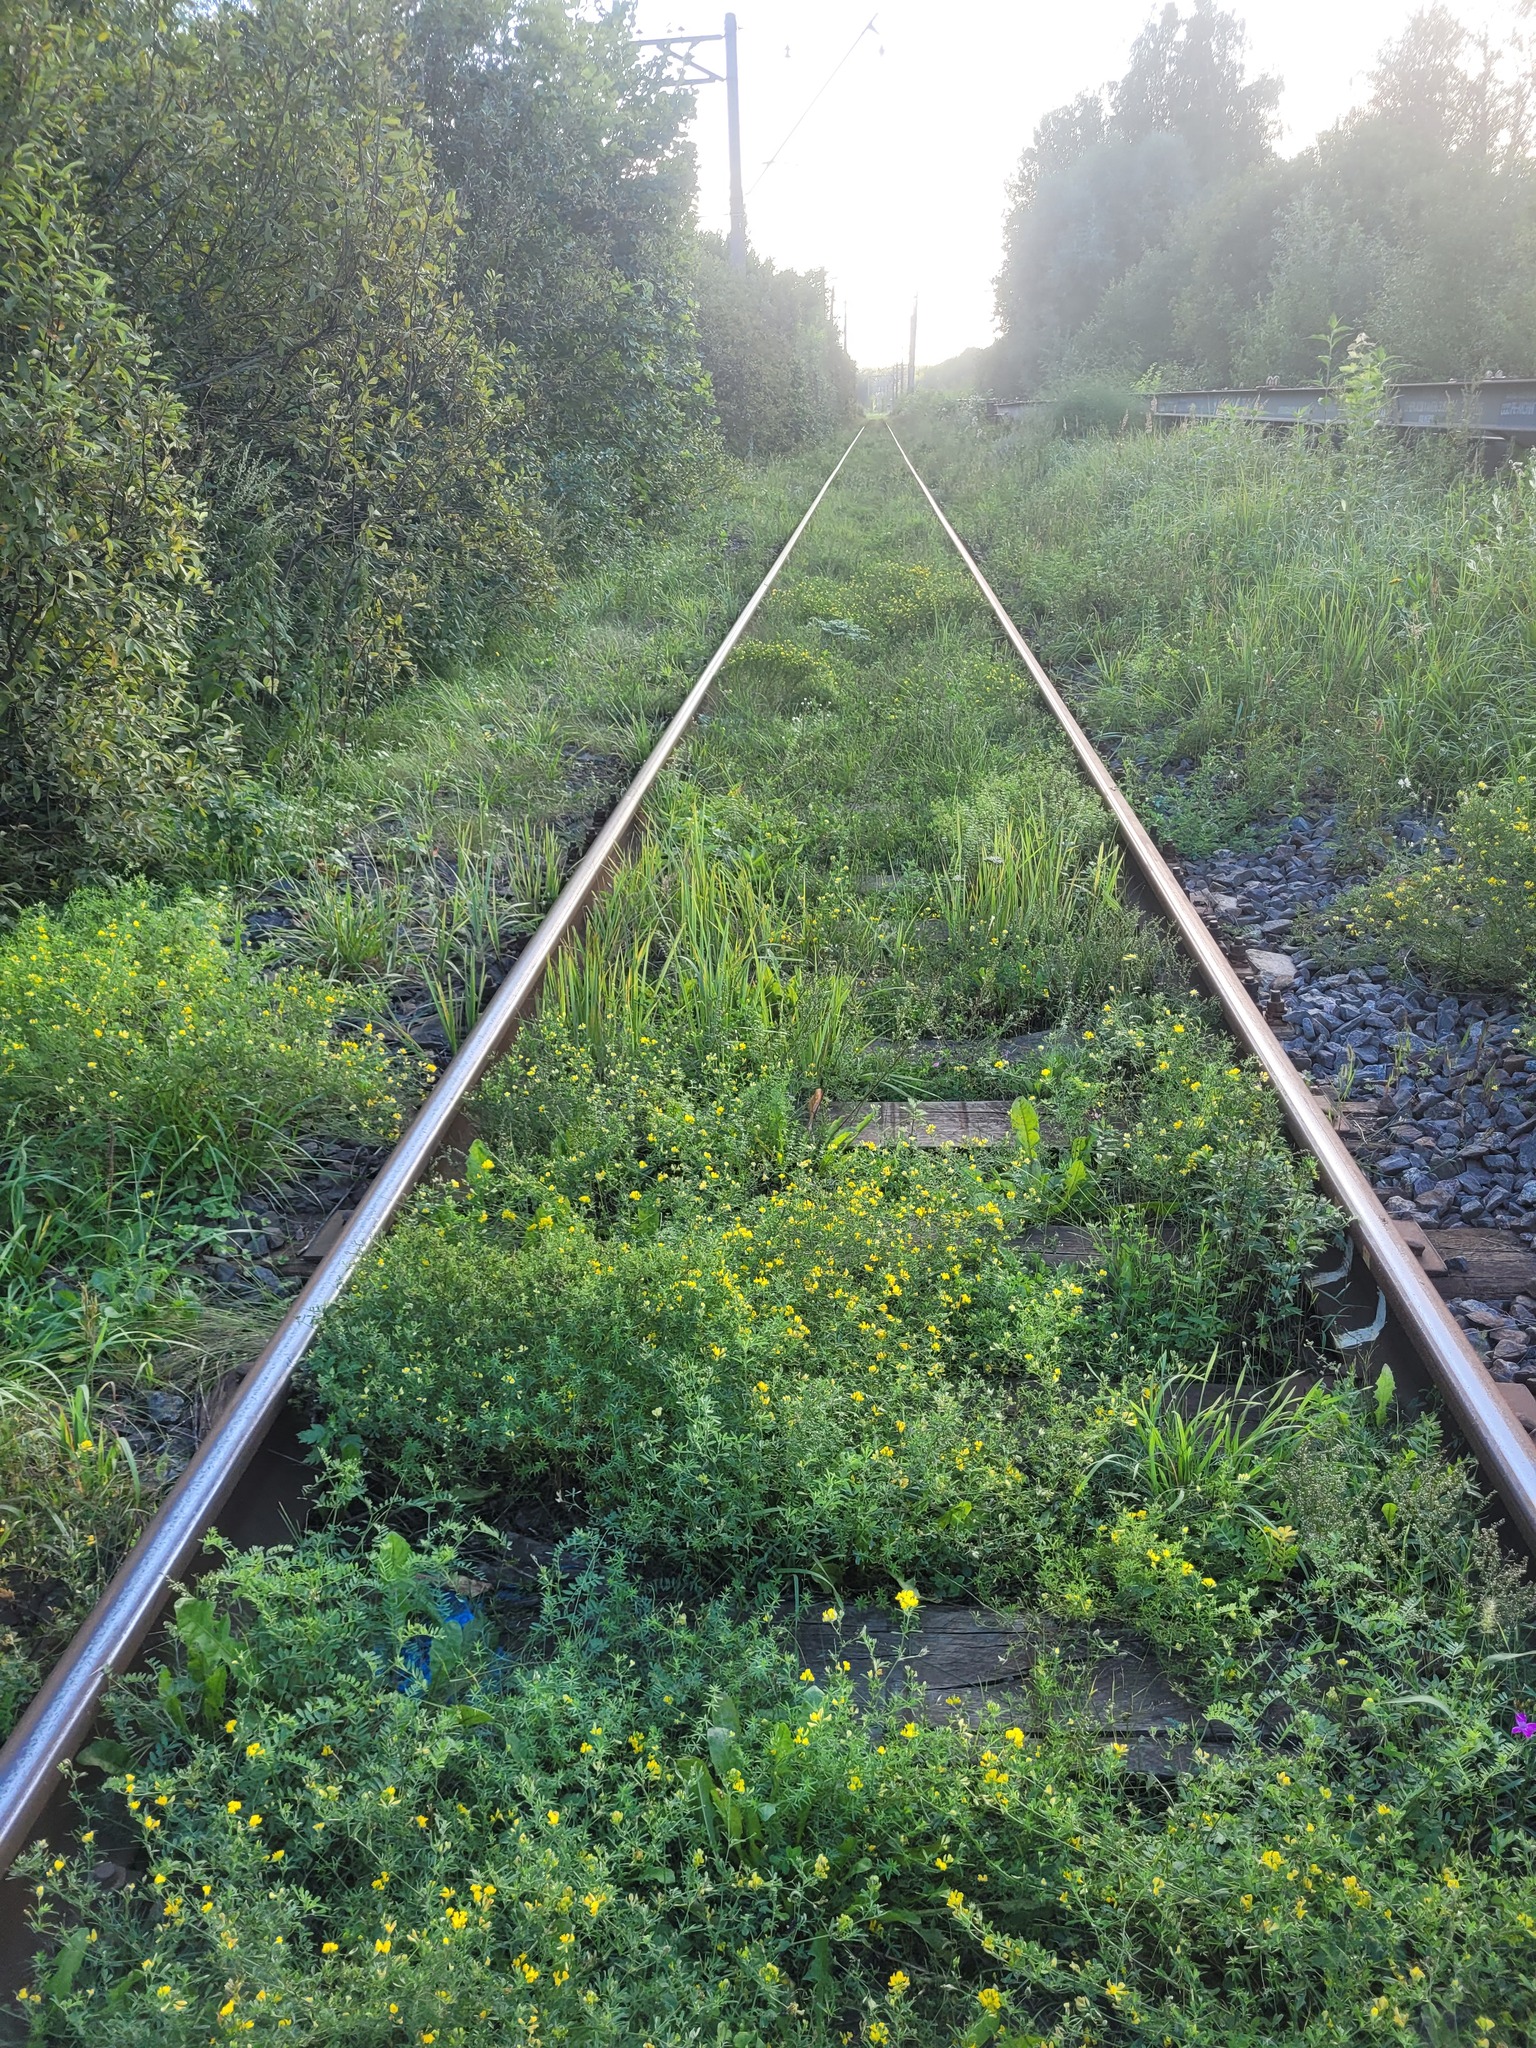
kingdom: Plantae
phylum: Tracheophyta
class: Magnoliopsida
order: Fabales
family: Fabaceae
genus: Medicago
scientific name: Medicago falcata
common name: Sickle medick
